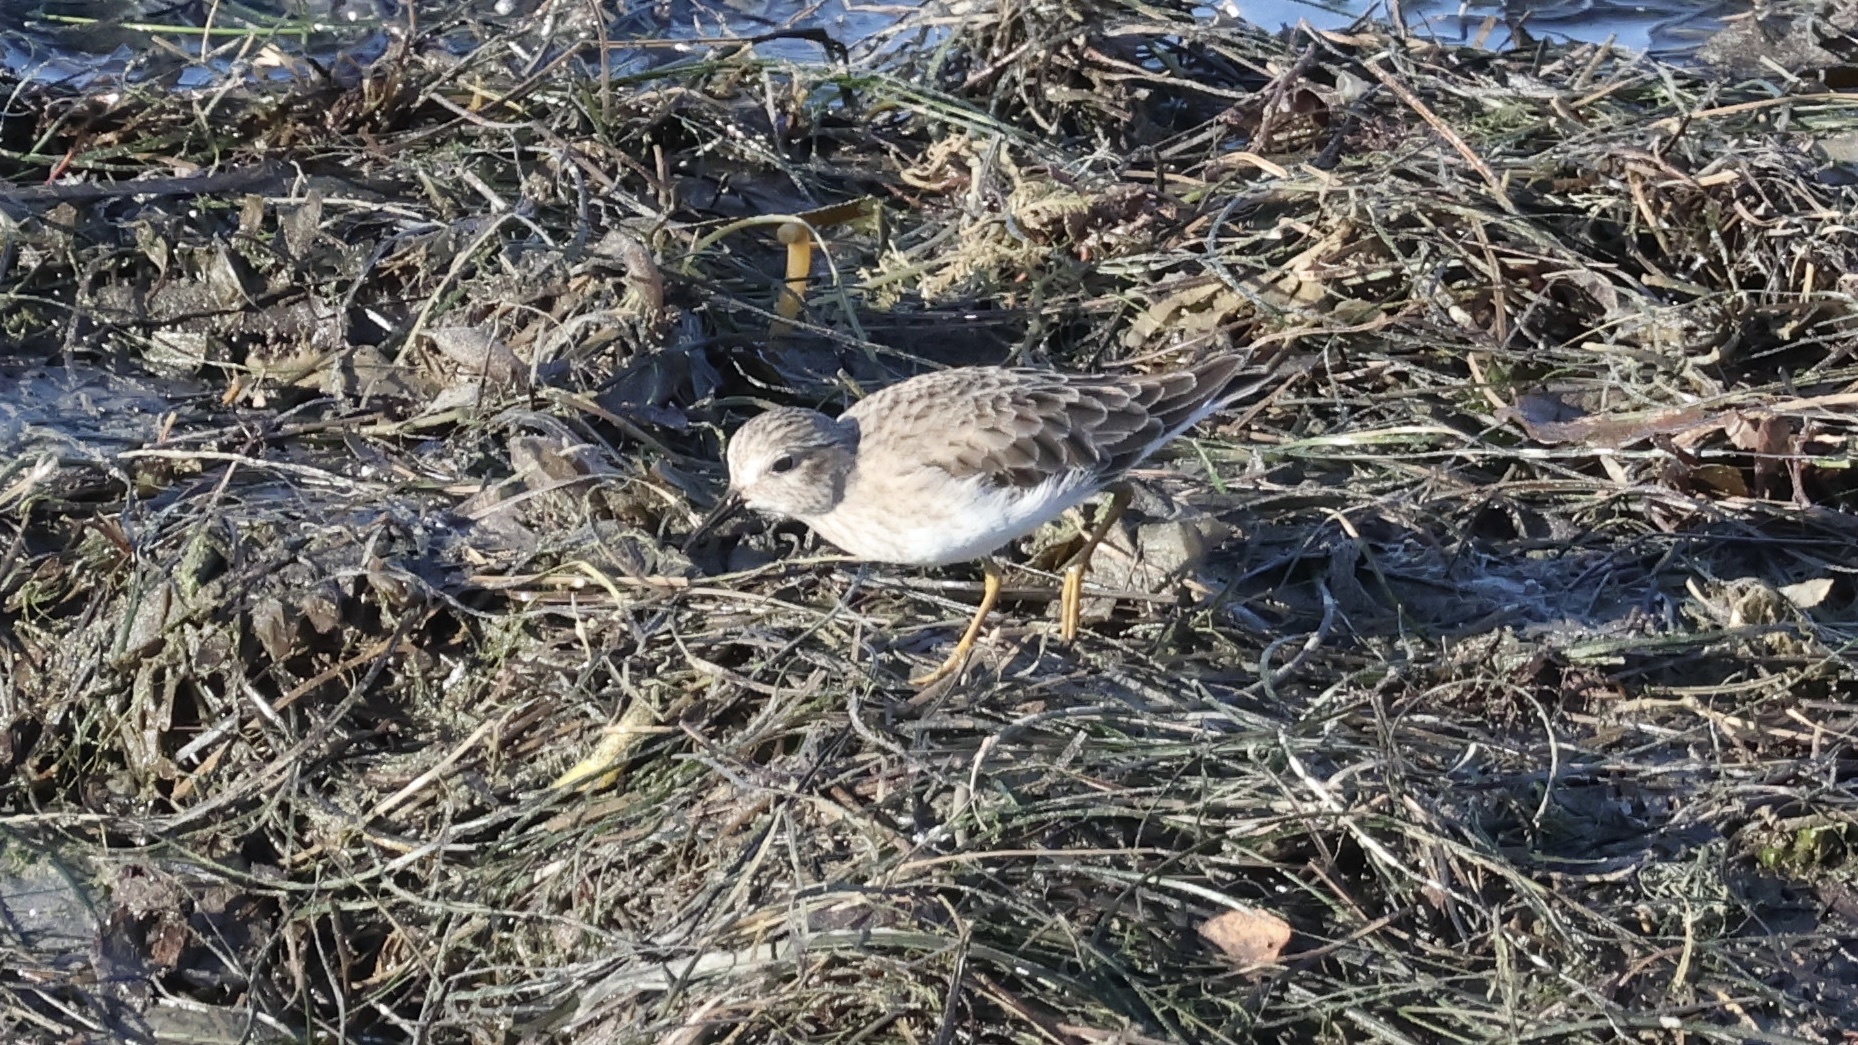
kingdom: Animalia
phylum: Chordata
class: Aves
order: Charadriiformes
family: Scolopacidae
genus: Calidris
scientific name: Calidris minutilla
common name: Least sandpiper
